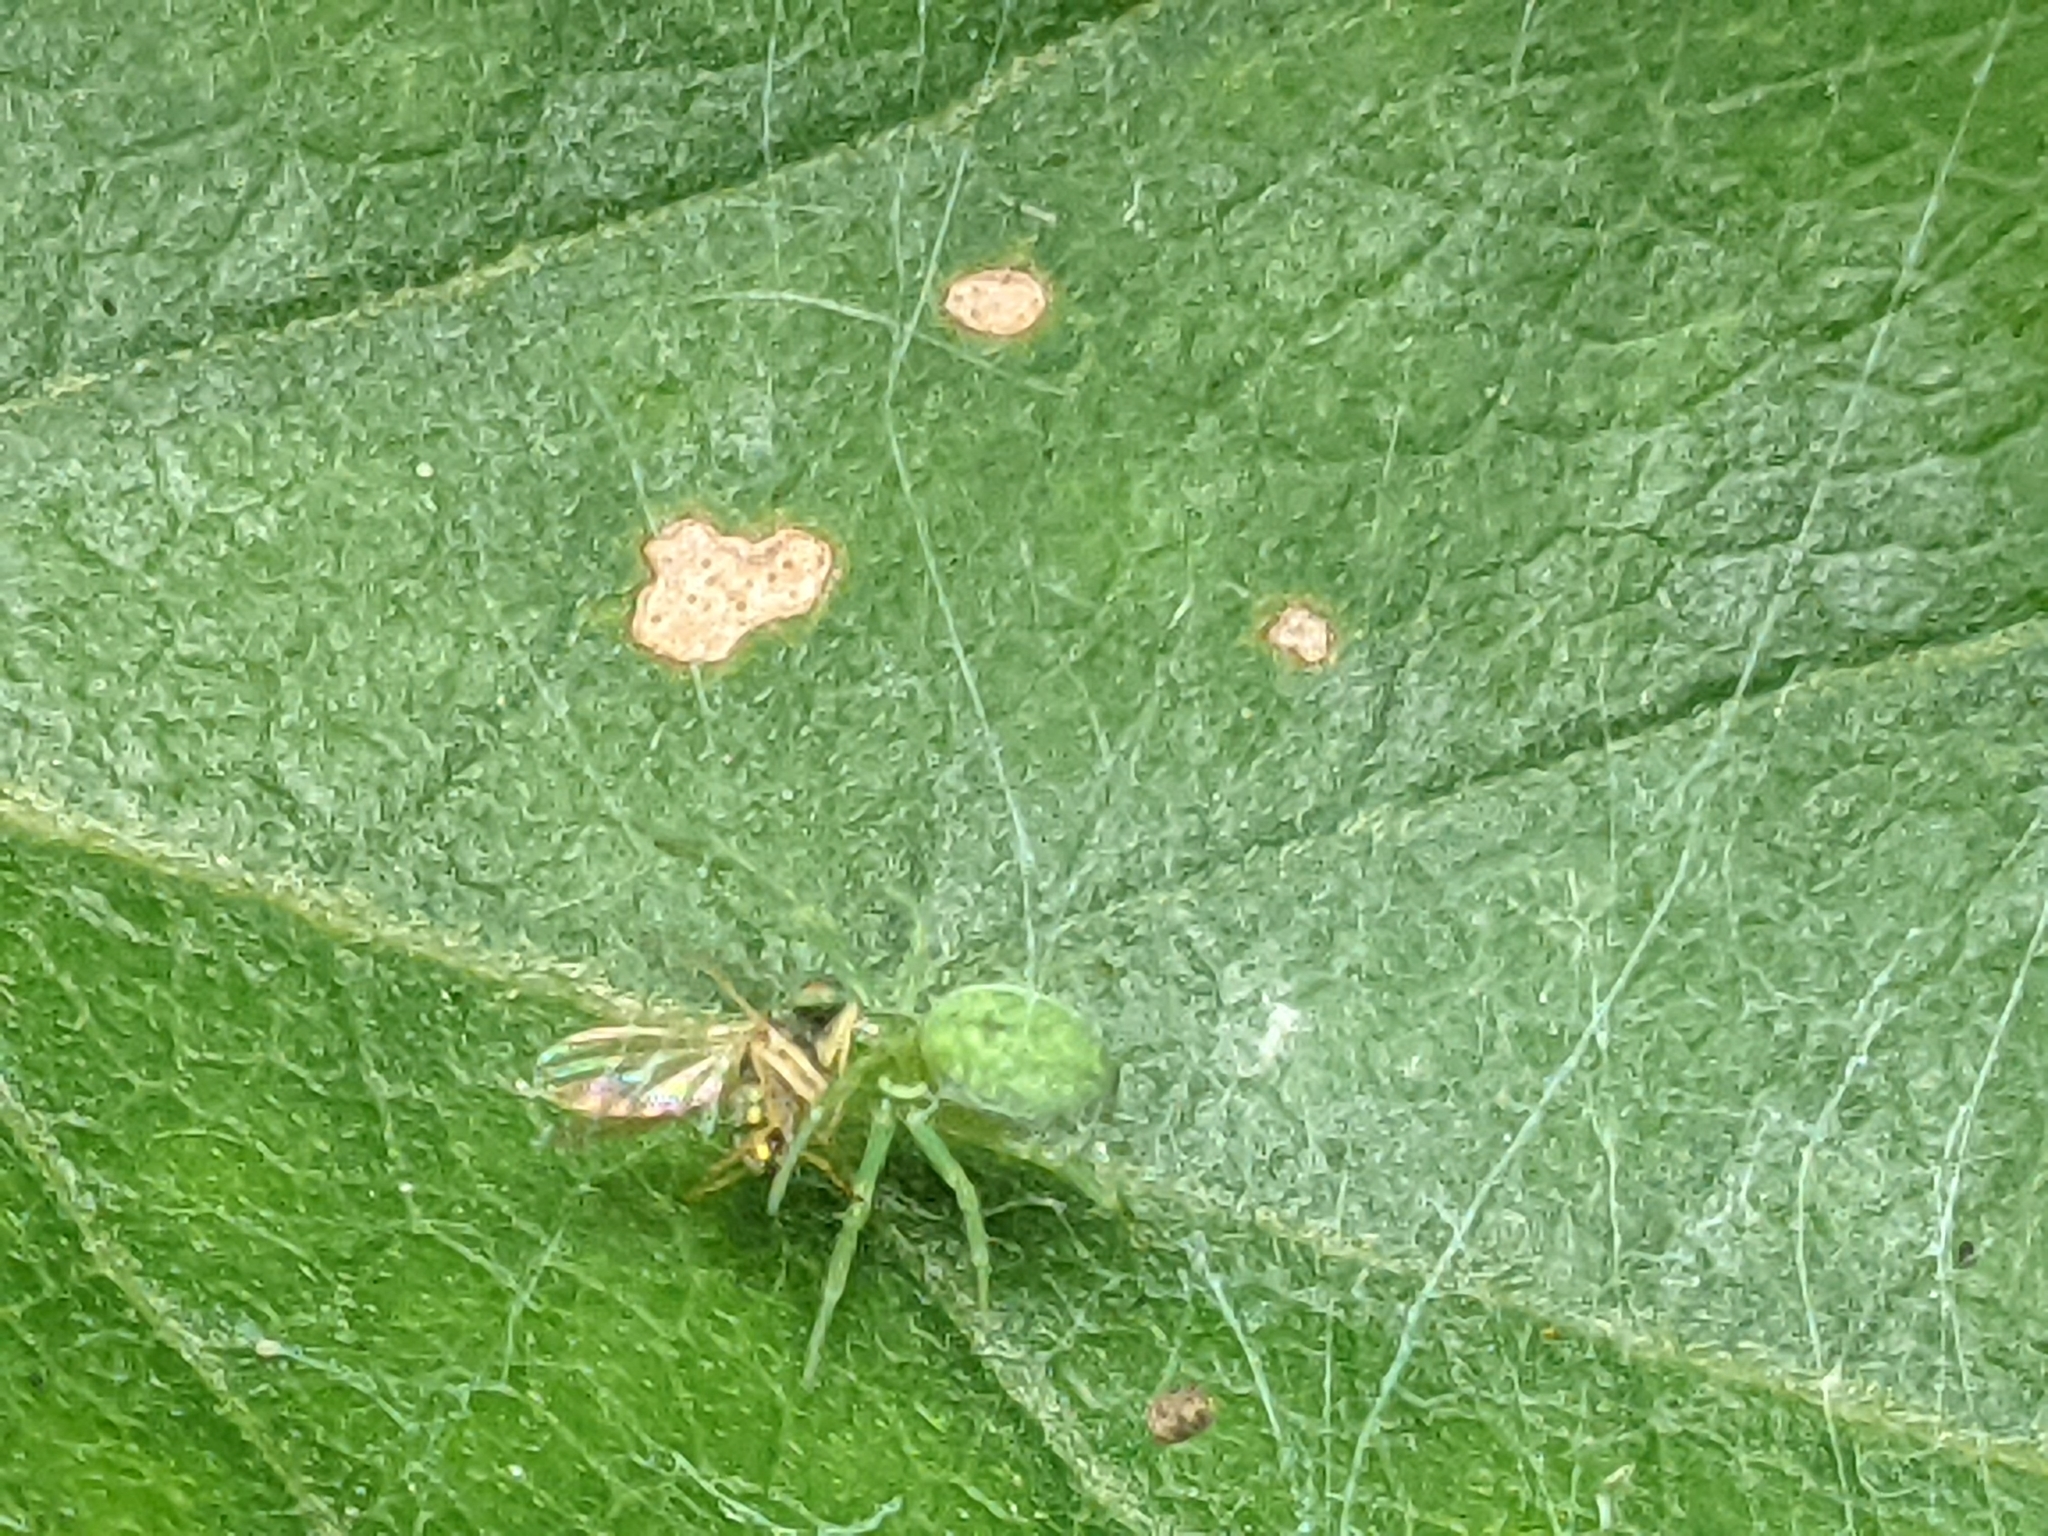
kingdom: Animalia
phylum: Arthropoda
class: Arachnida
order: Araneae
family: Dictynidae
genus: Nigma
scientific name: Nigma walckenaeri
